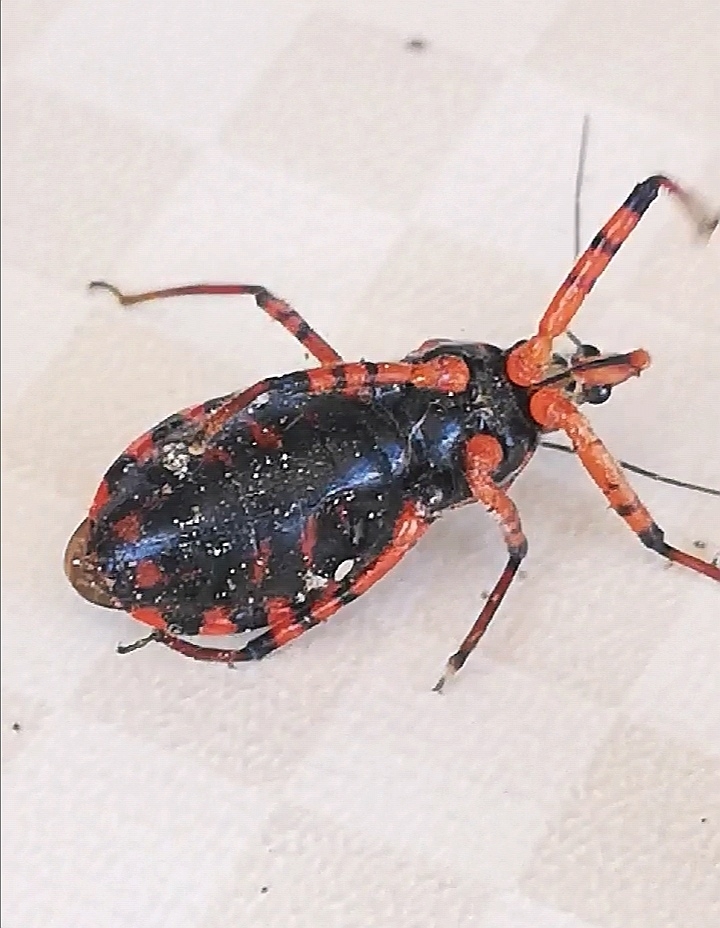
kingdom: Animalia
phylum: Arthropoda
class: Insecta
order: Hemiptera
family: Reduviidae
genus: Rhynocoris
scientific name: Rhynocoris iracundus
